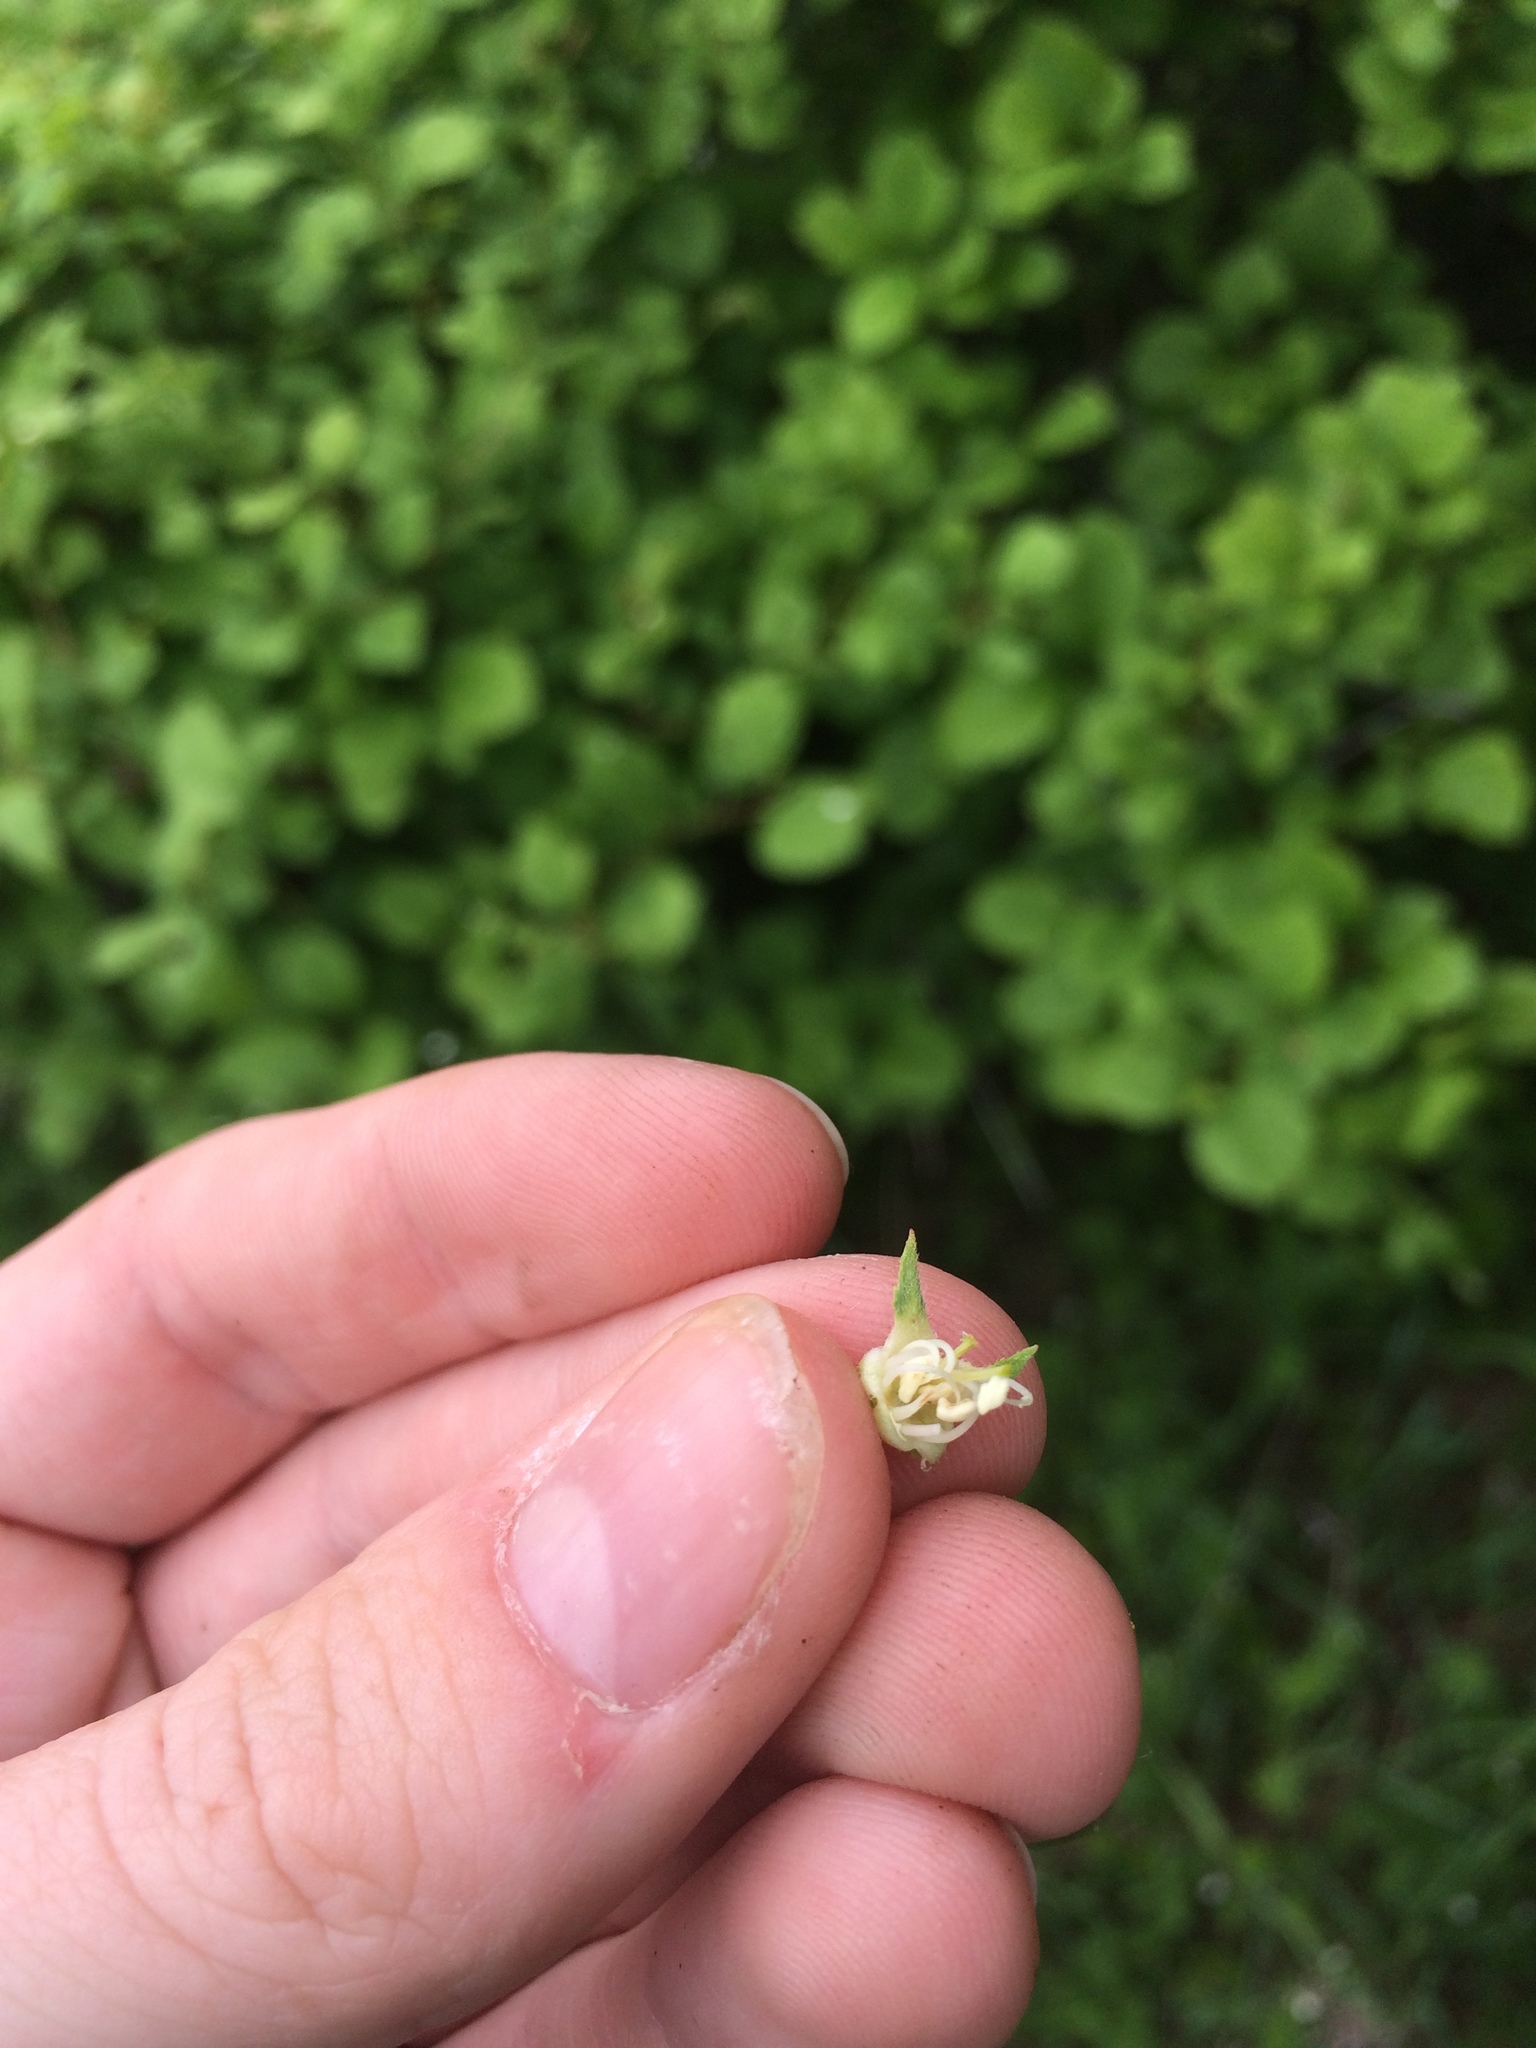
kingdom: Plantae
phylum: Tracheophyta
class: Magnoliopsida
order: Rosales
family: Rosaceae
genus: Crataegus
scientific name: Crataegus macracantha
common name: Large-thorn hawthorn
